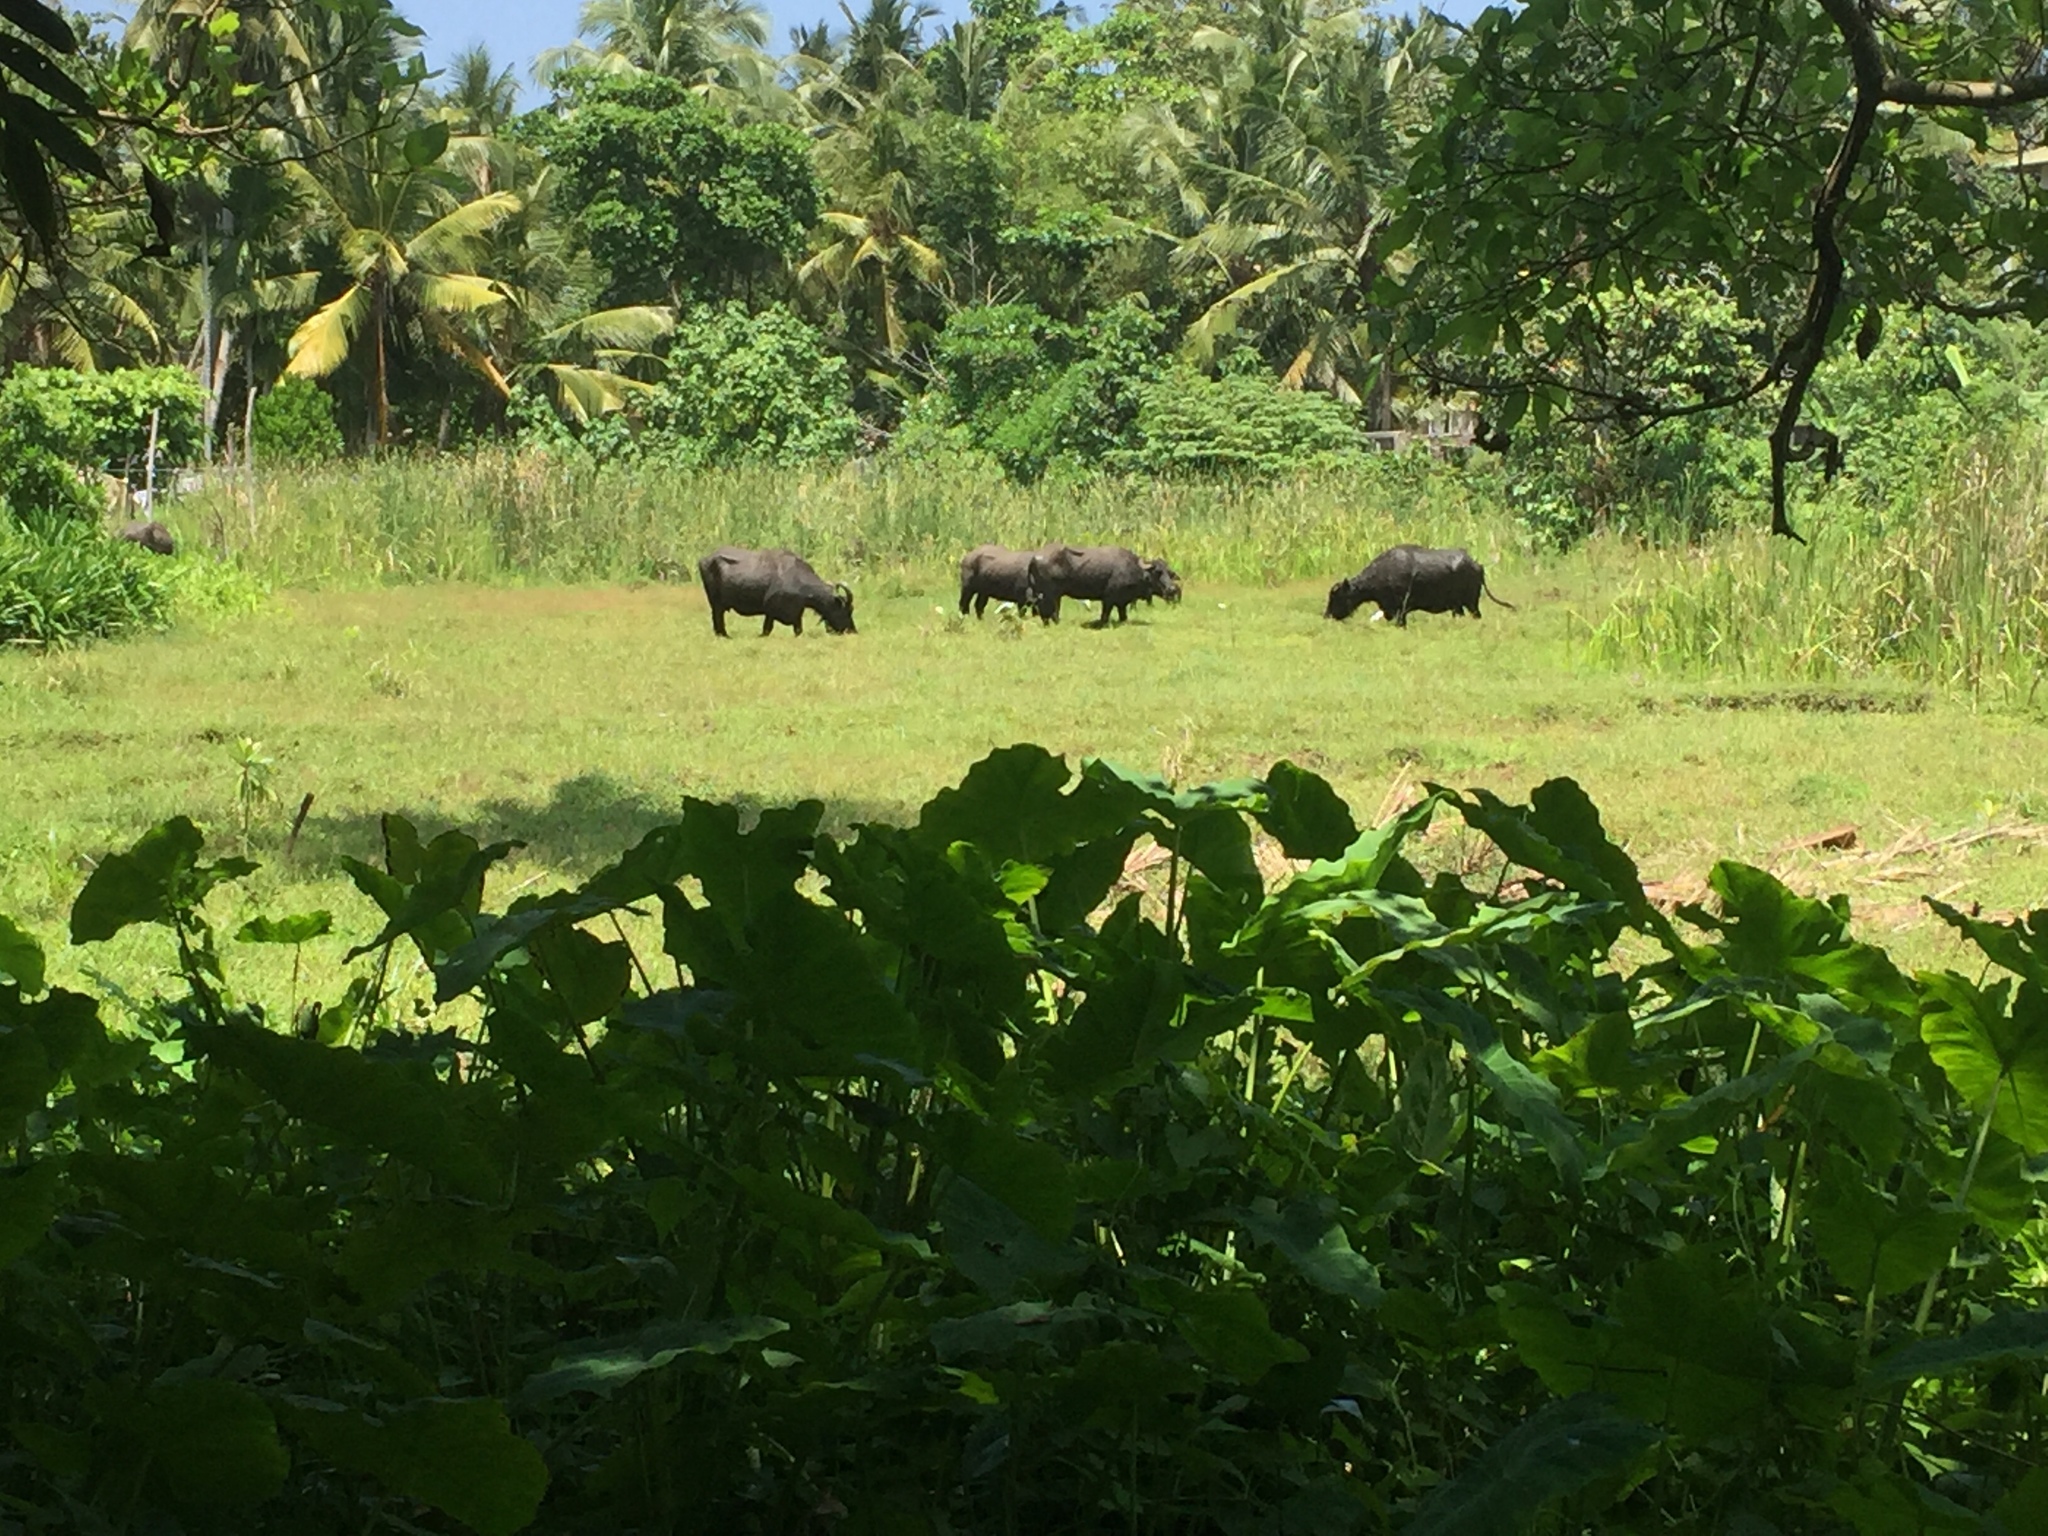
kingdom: Animalia
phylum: Chordata
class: Mammalia
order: Artiodactyla
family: Bovidae
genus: Bubalus
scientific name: Bubalus bubalis
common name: Water buffalo
